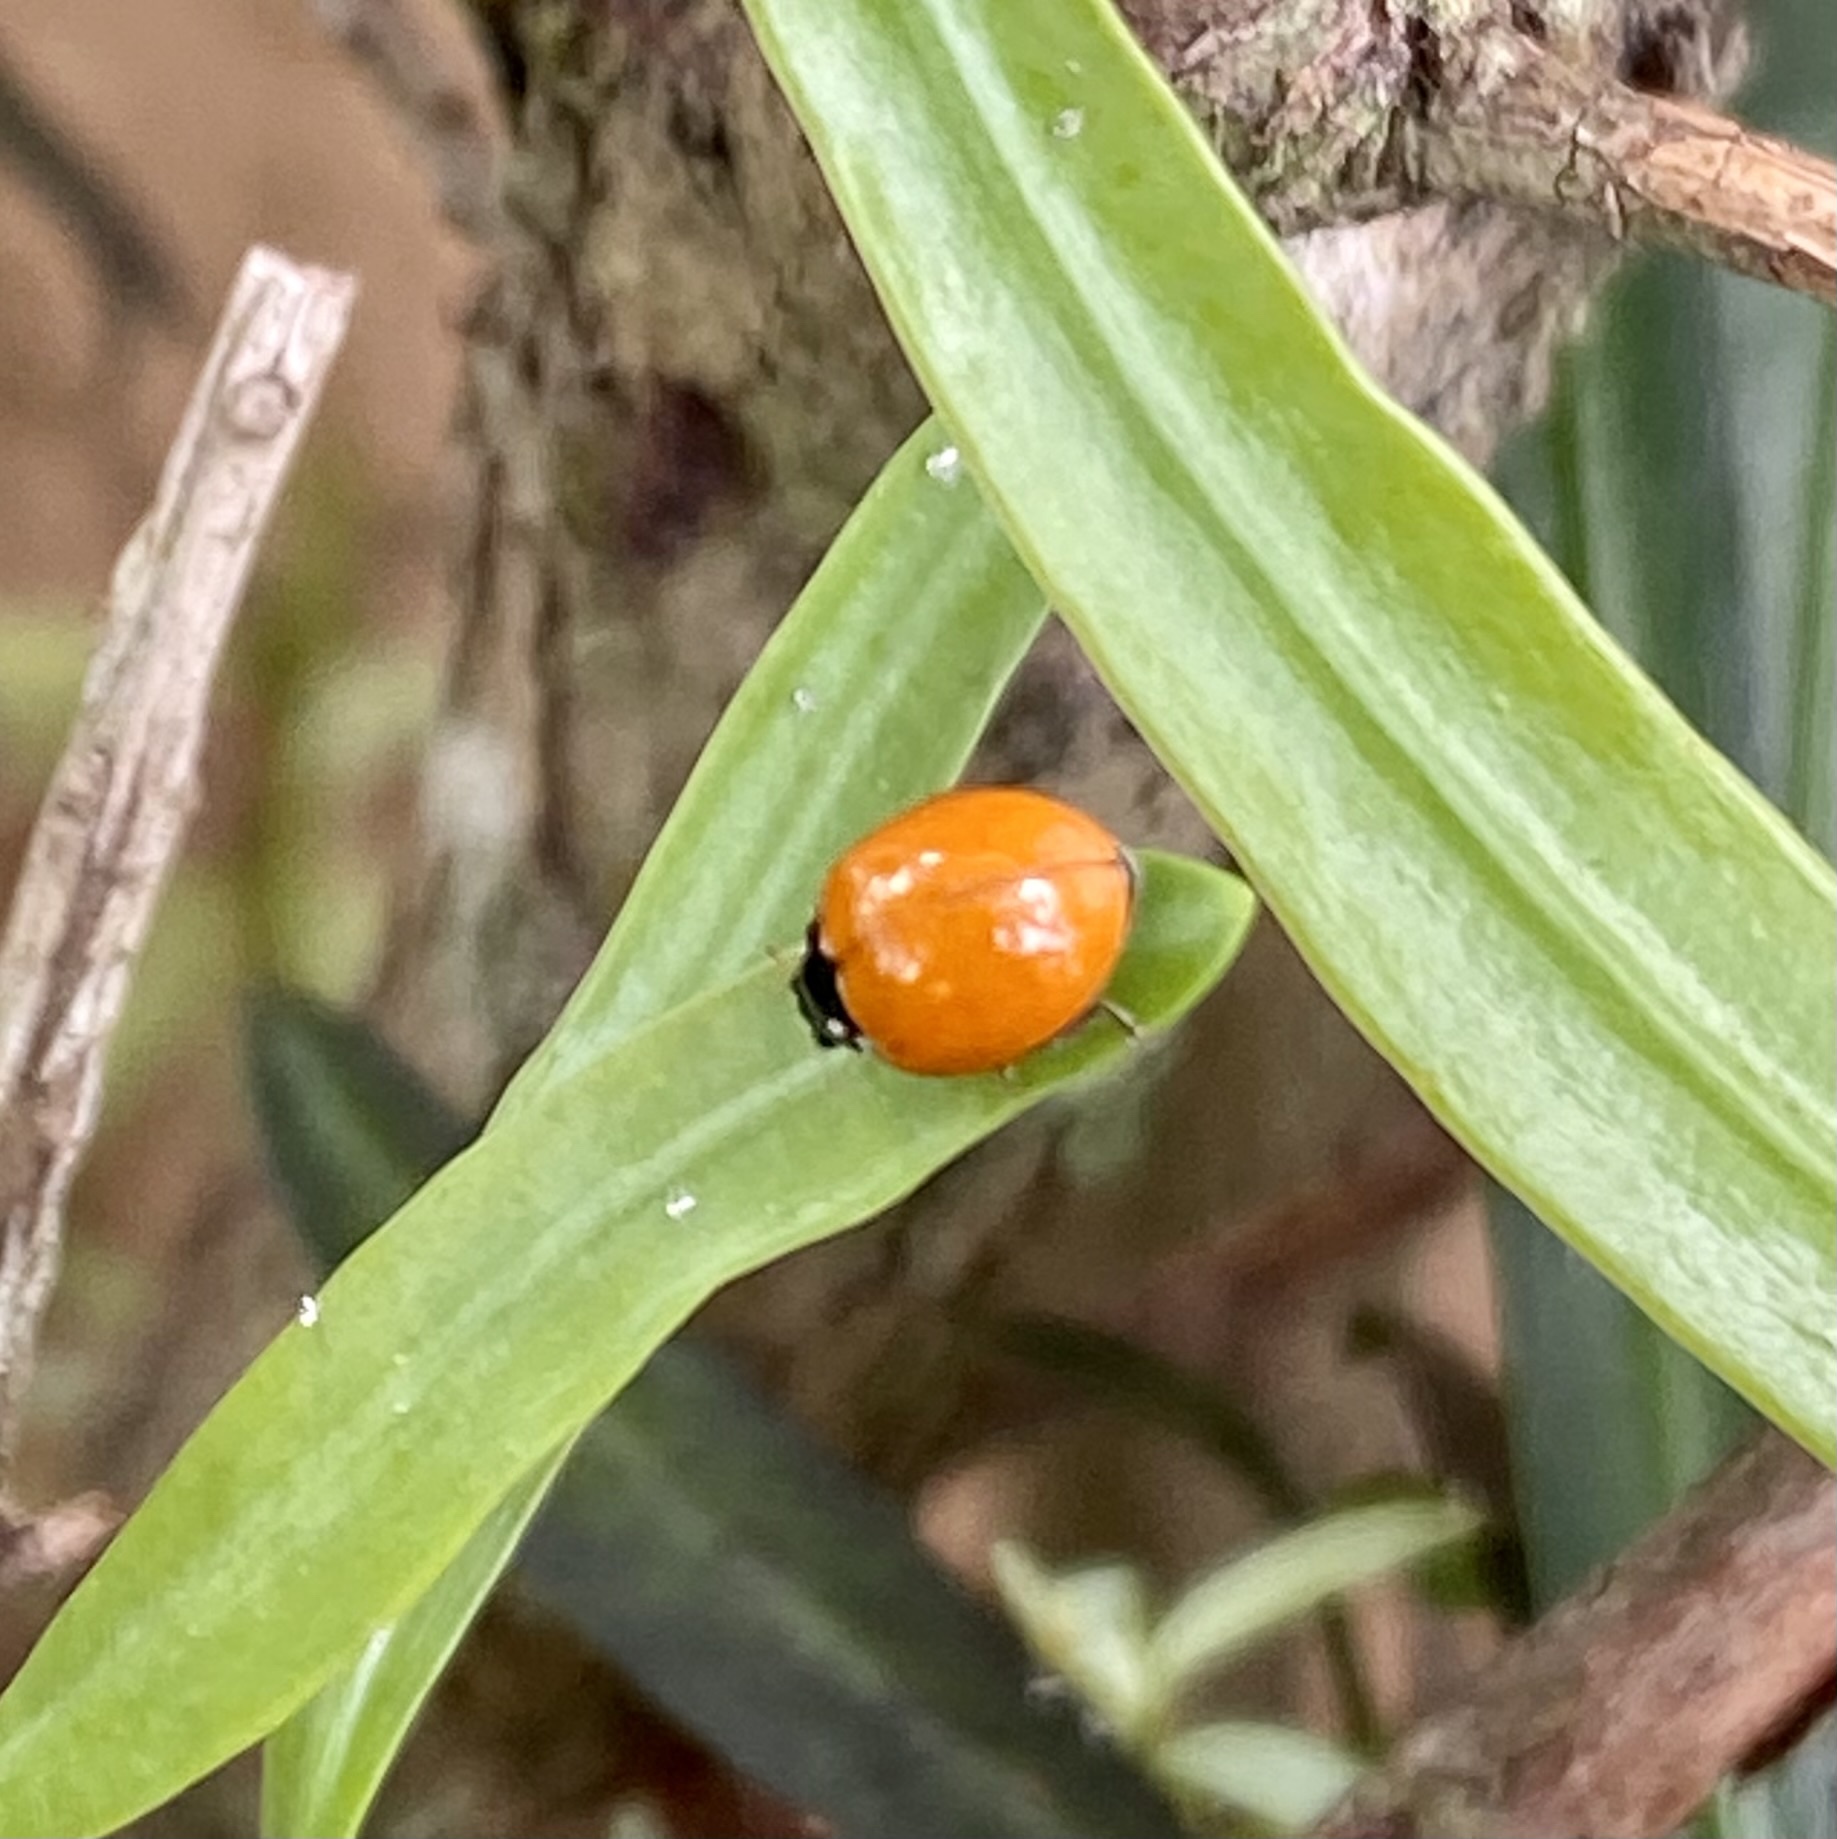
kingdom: Animalia
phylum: Arthropoda
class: Insecta
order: Coleoptera
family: Coccinellidae
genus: Cycloneda
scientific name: Cycloneda sanguinea
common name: Ladybird beetle
